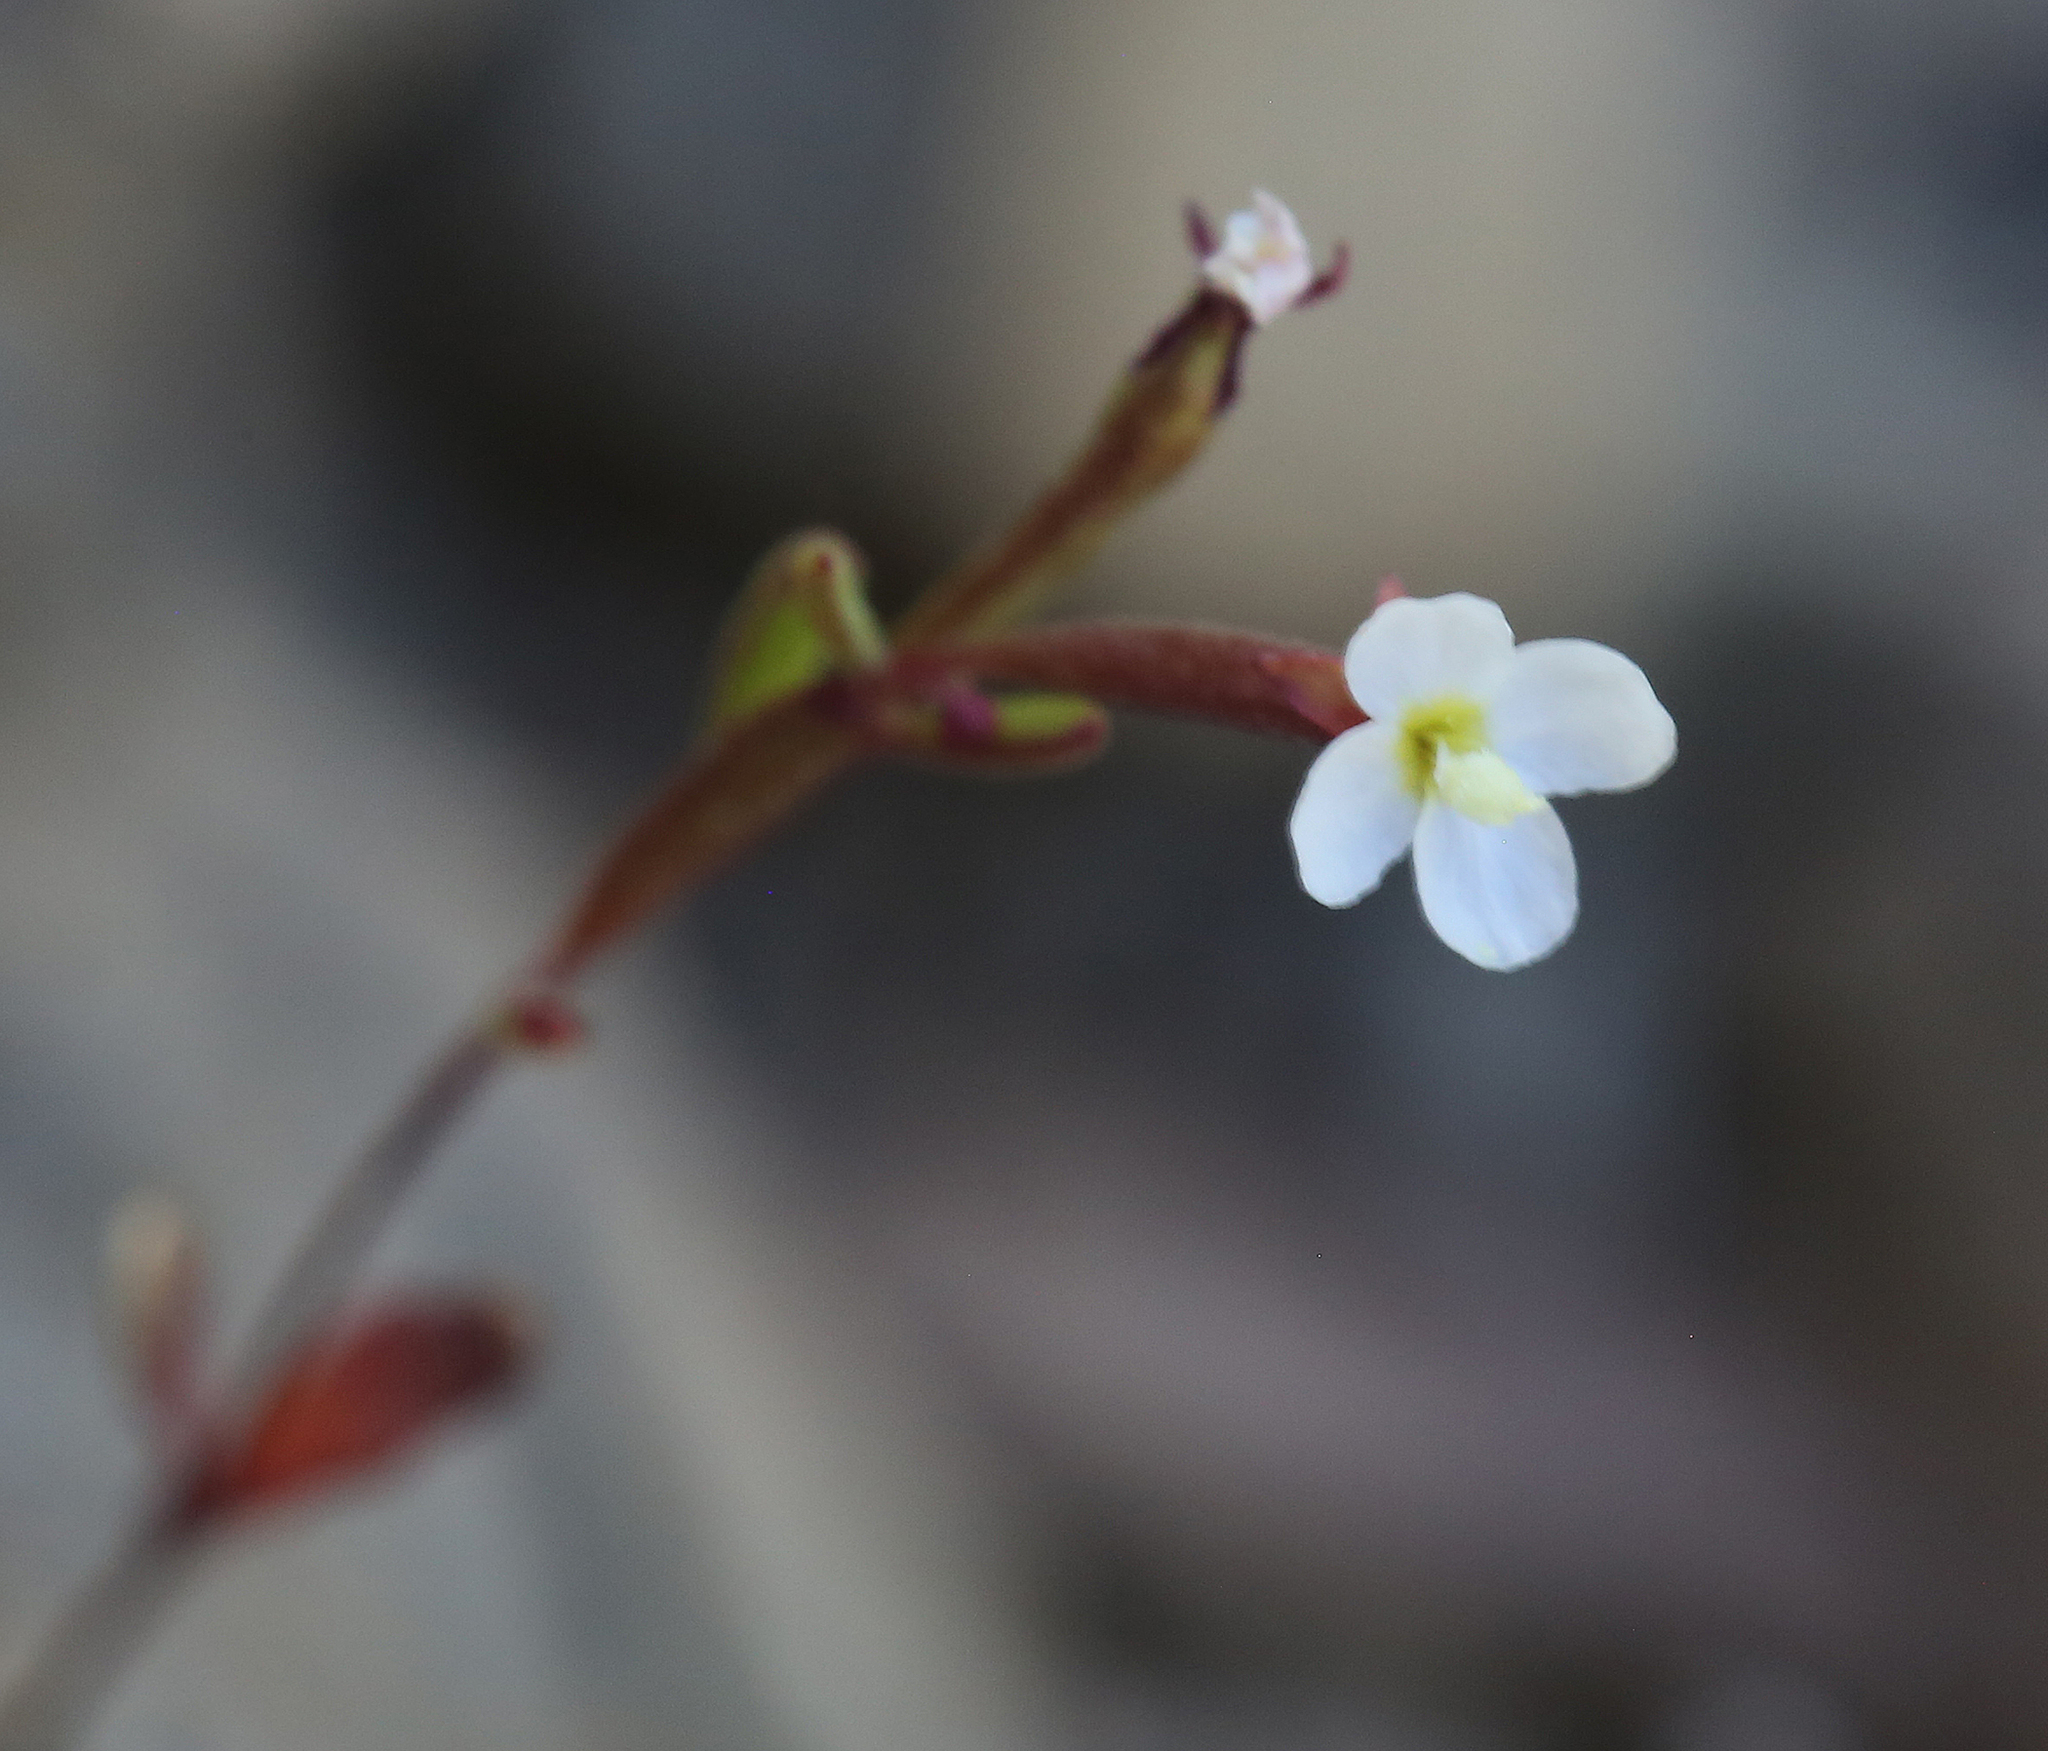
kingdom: Plantae
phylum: Tracheophyta
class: Magnoliopsida
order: Myrtales
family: Onagraceae
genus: Chylismiella
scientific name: Chylismiella pterosperma
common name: Wingfruit suncup
